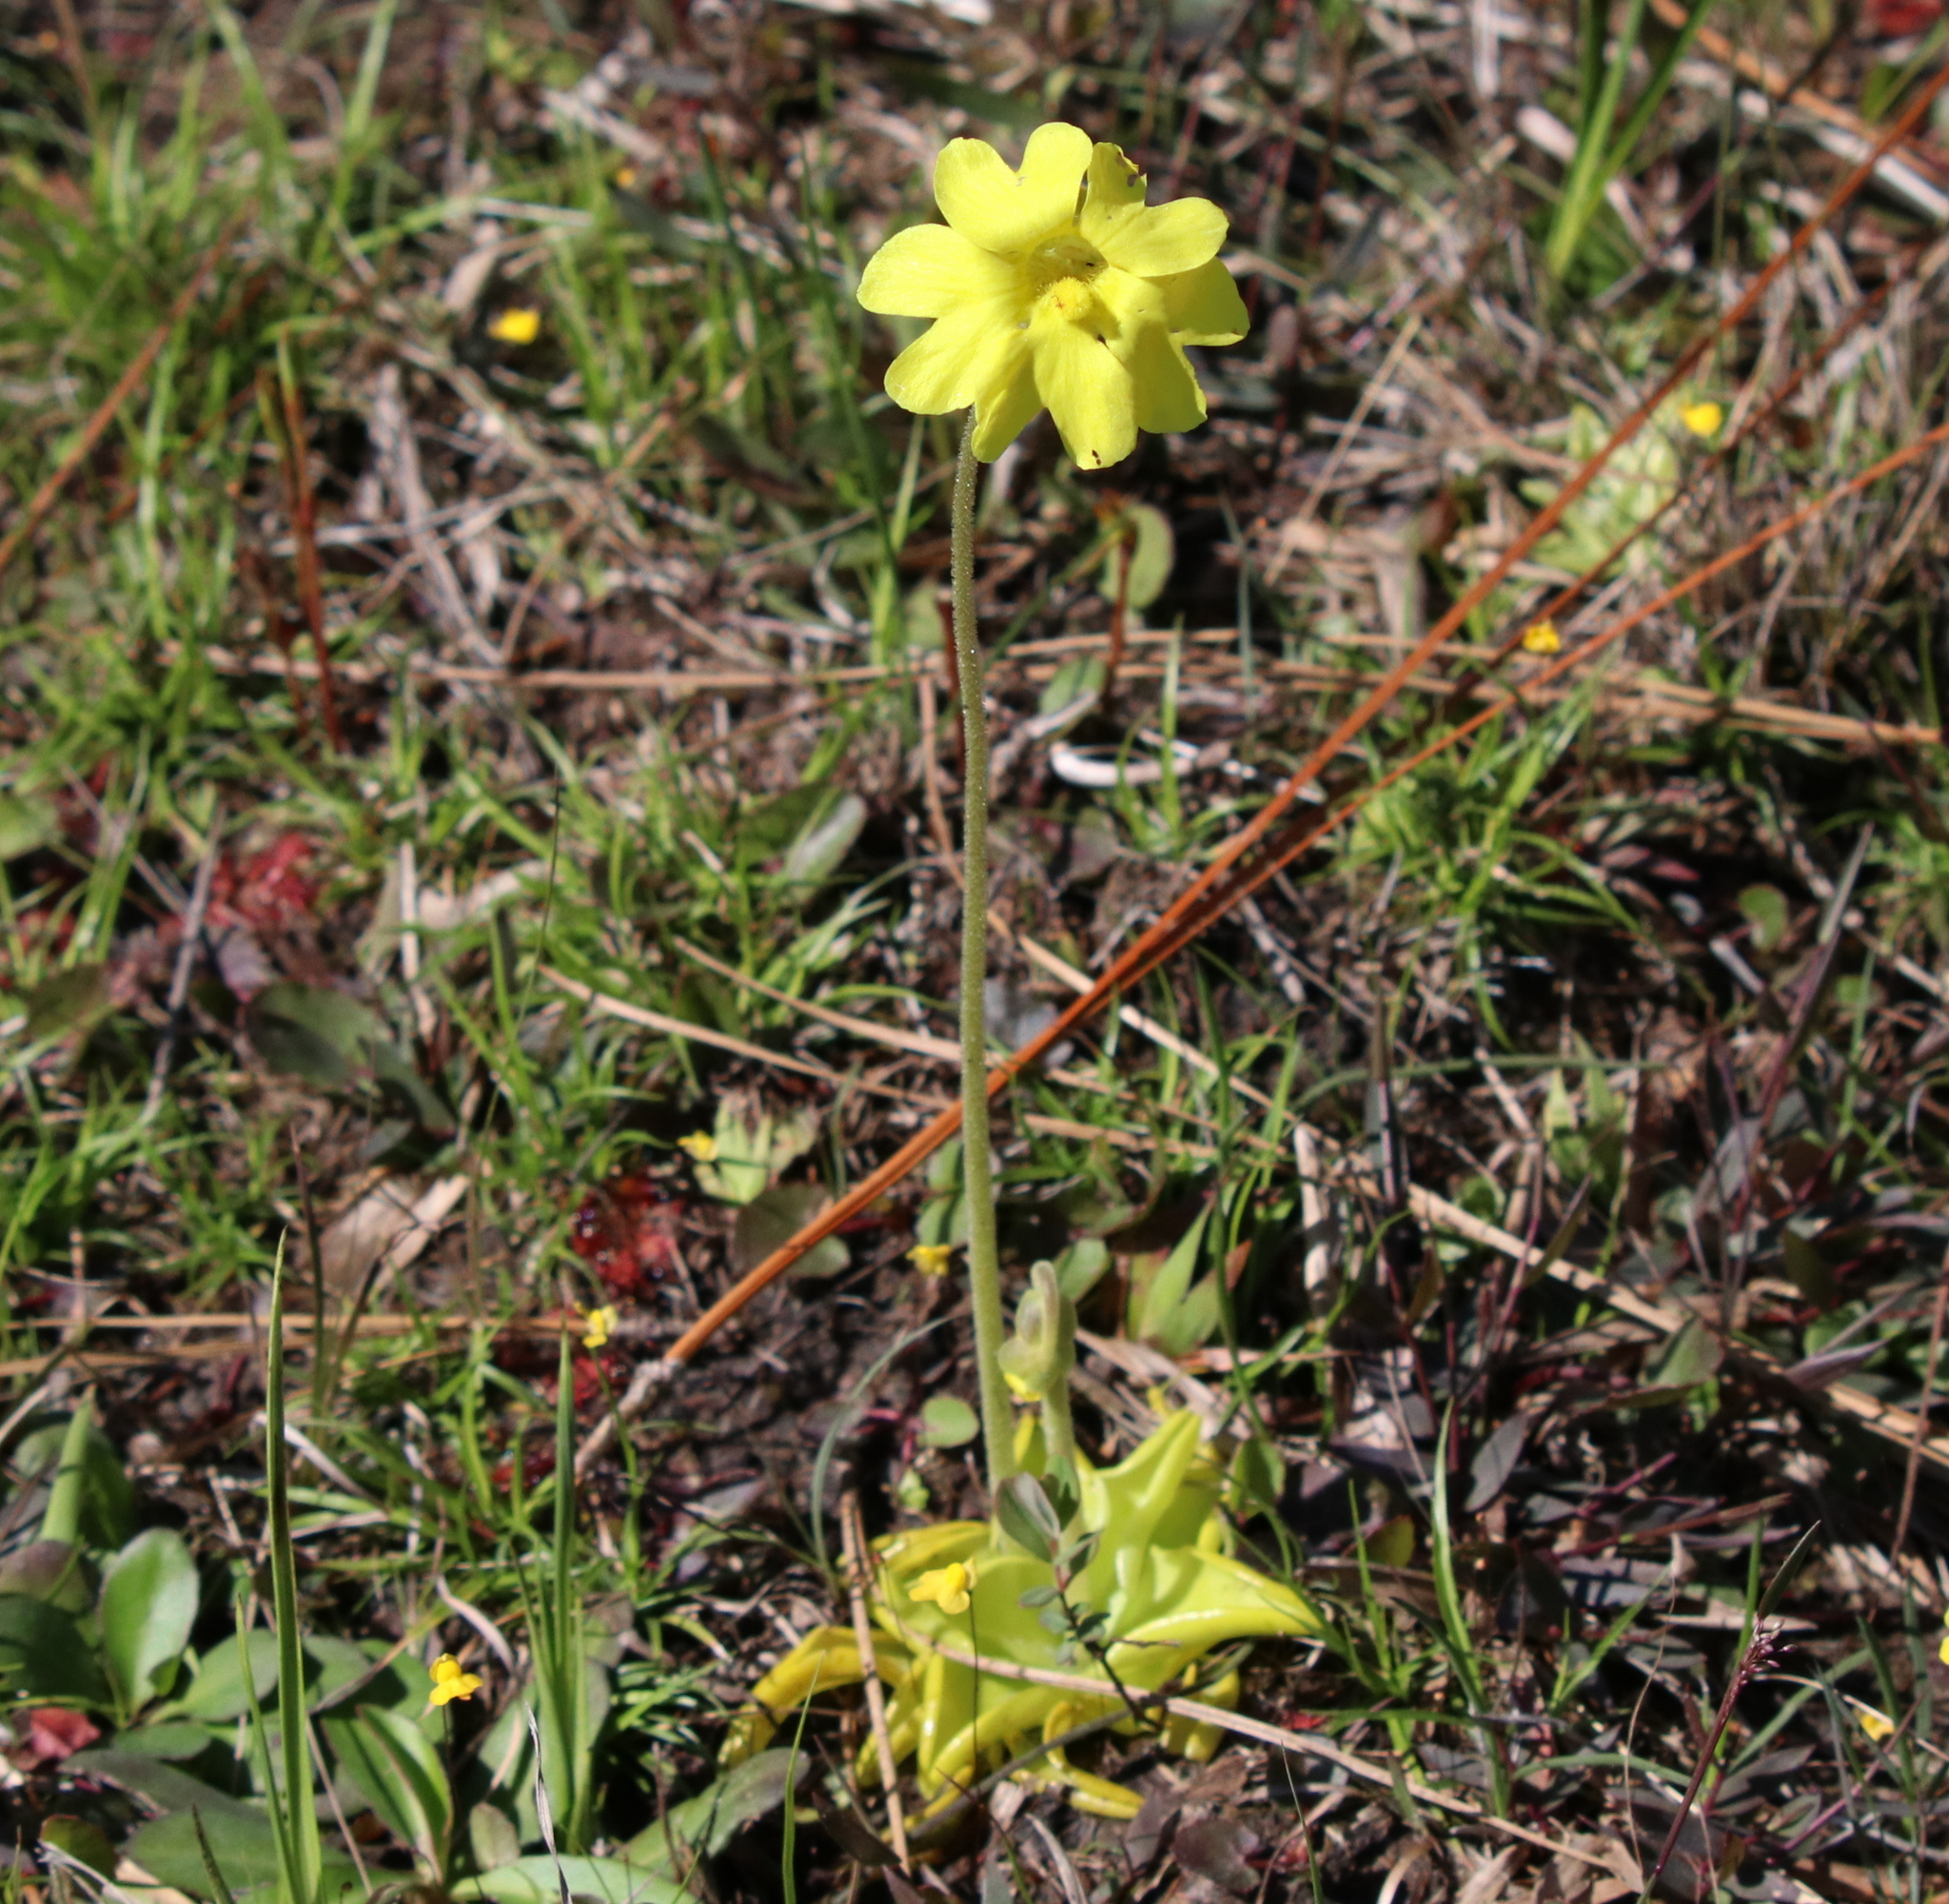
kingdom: Plantae
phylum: Tracheophyta
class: Magnoliopsida
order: Lamiales
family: Lentibulariaceae
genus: Pinguicula
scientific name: Pinguicula lutea
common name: Yellow butterwort
